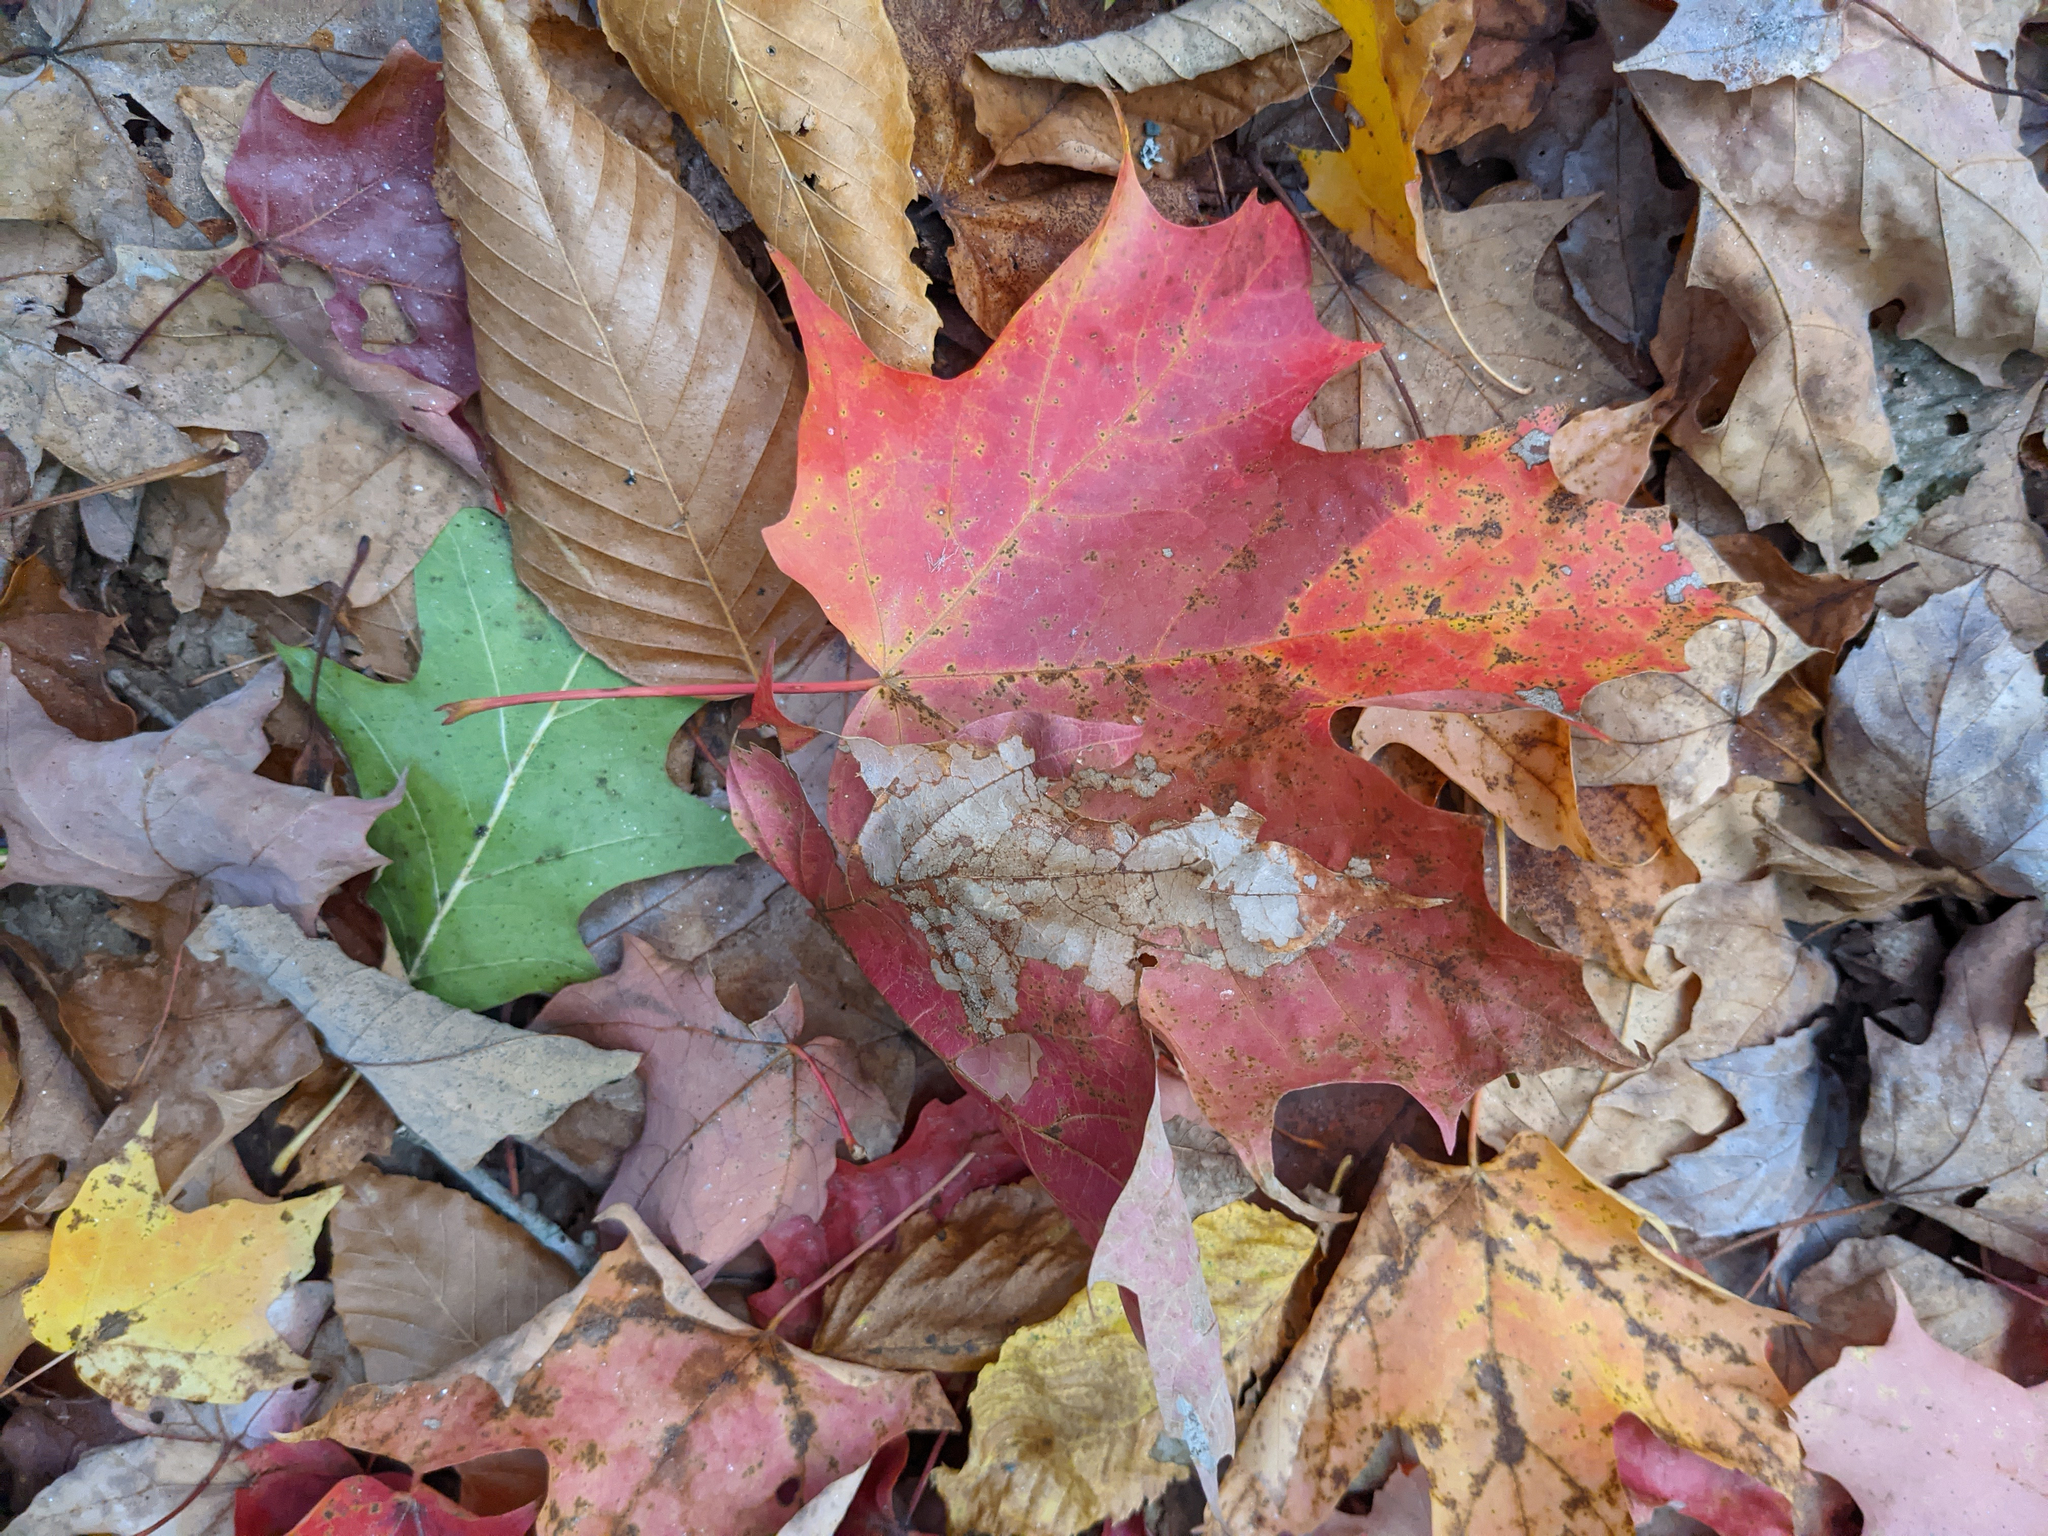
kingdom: Plantae
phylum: Tracheophyta
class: Magnoliopsida
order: Sapindales
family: Sapindaceae
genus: Acer
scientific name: Acer saccharum
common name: Sugar maple
